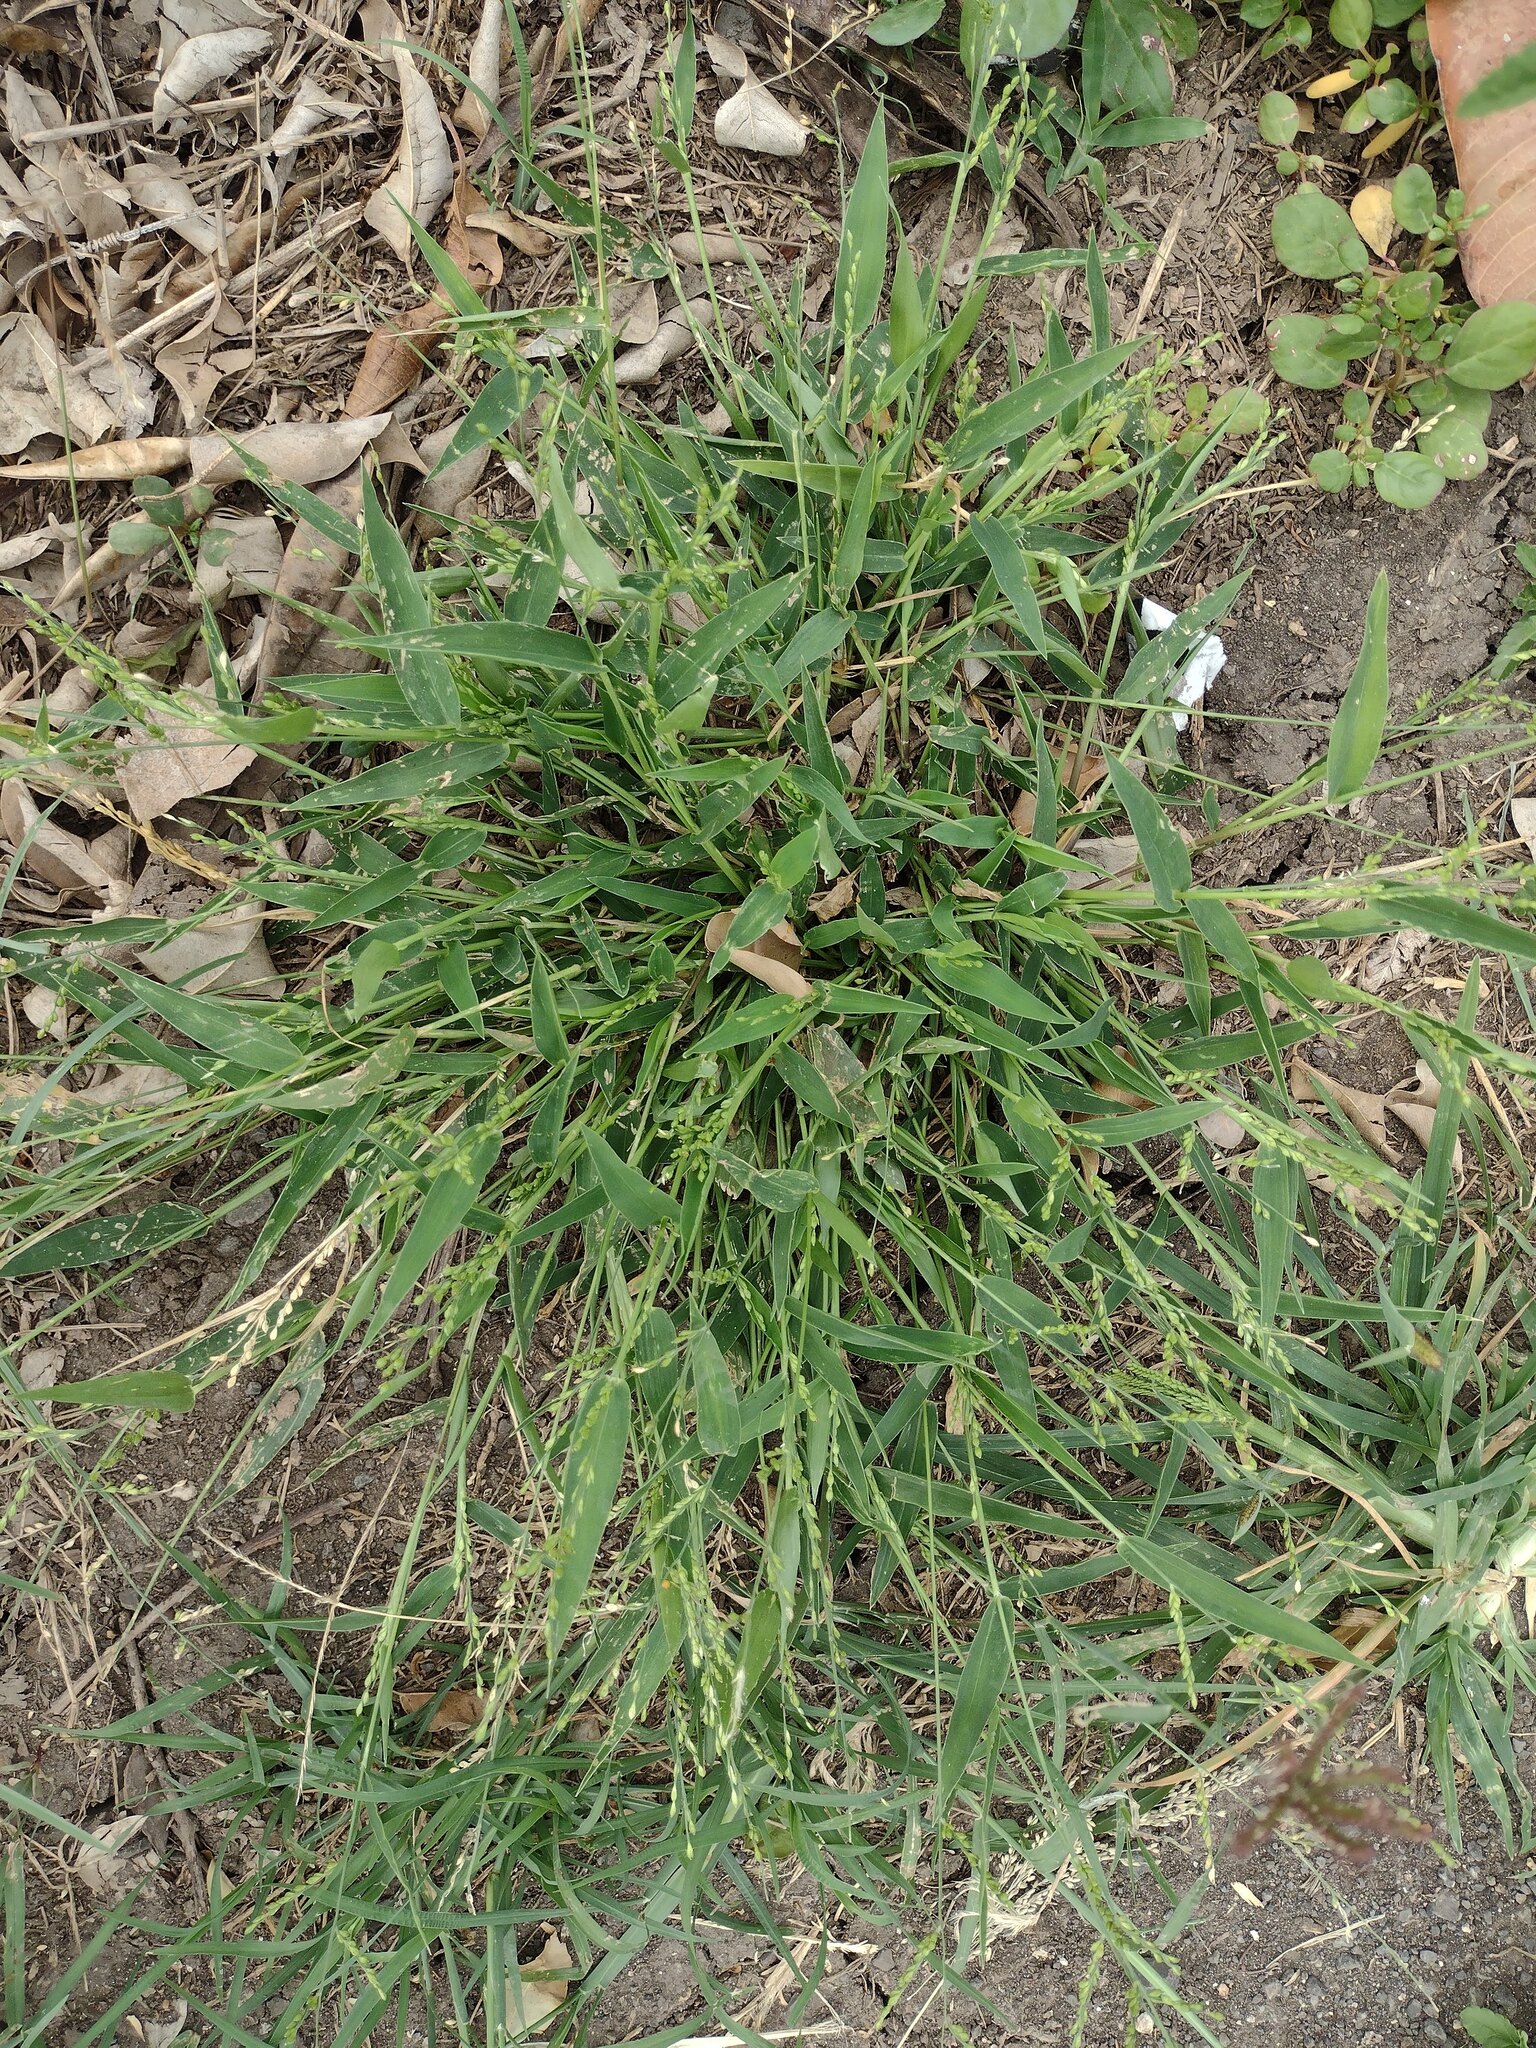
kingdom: Plantae
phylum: Tracheophyta
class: Liliopsida
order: Poales
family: Poaceae
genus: Urochloa
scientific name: Urochloa ramosa
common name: Browntop millet
